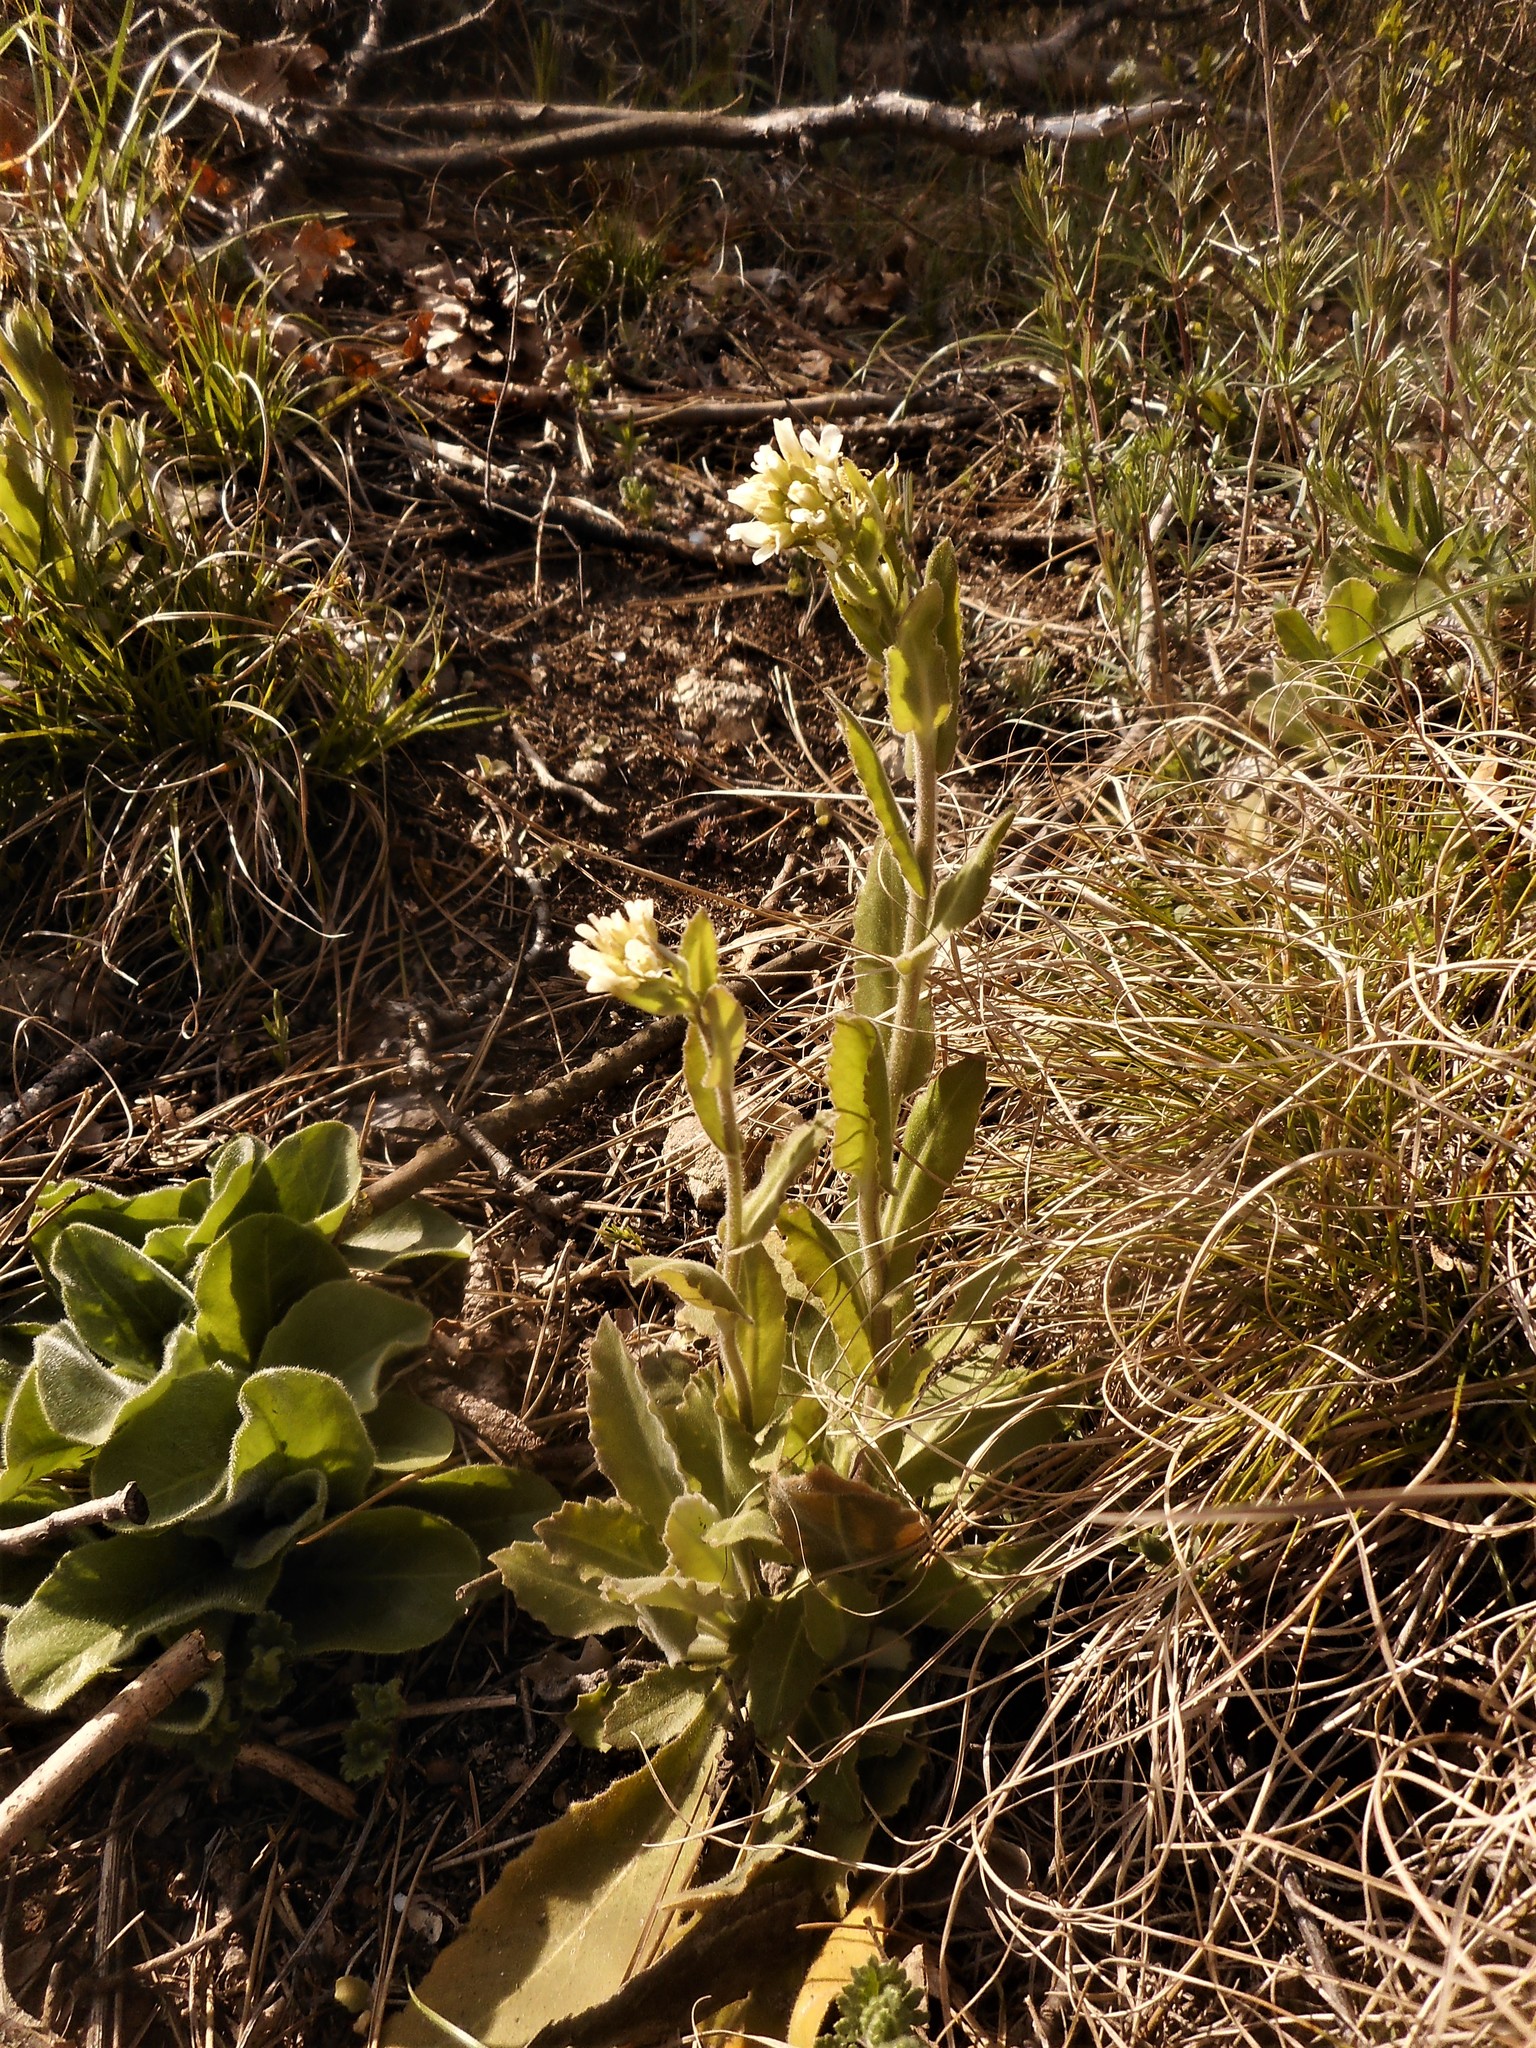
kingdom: Plantae
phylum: Tracheophyta
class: Magnoliopsida
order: Brassicales
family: Brassicaceae
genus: Pseudoturritis
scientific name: Pseudoturritis turrita
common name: Tower cress
